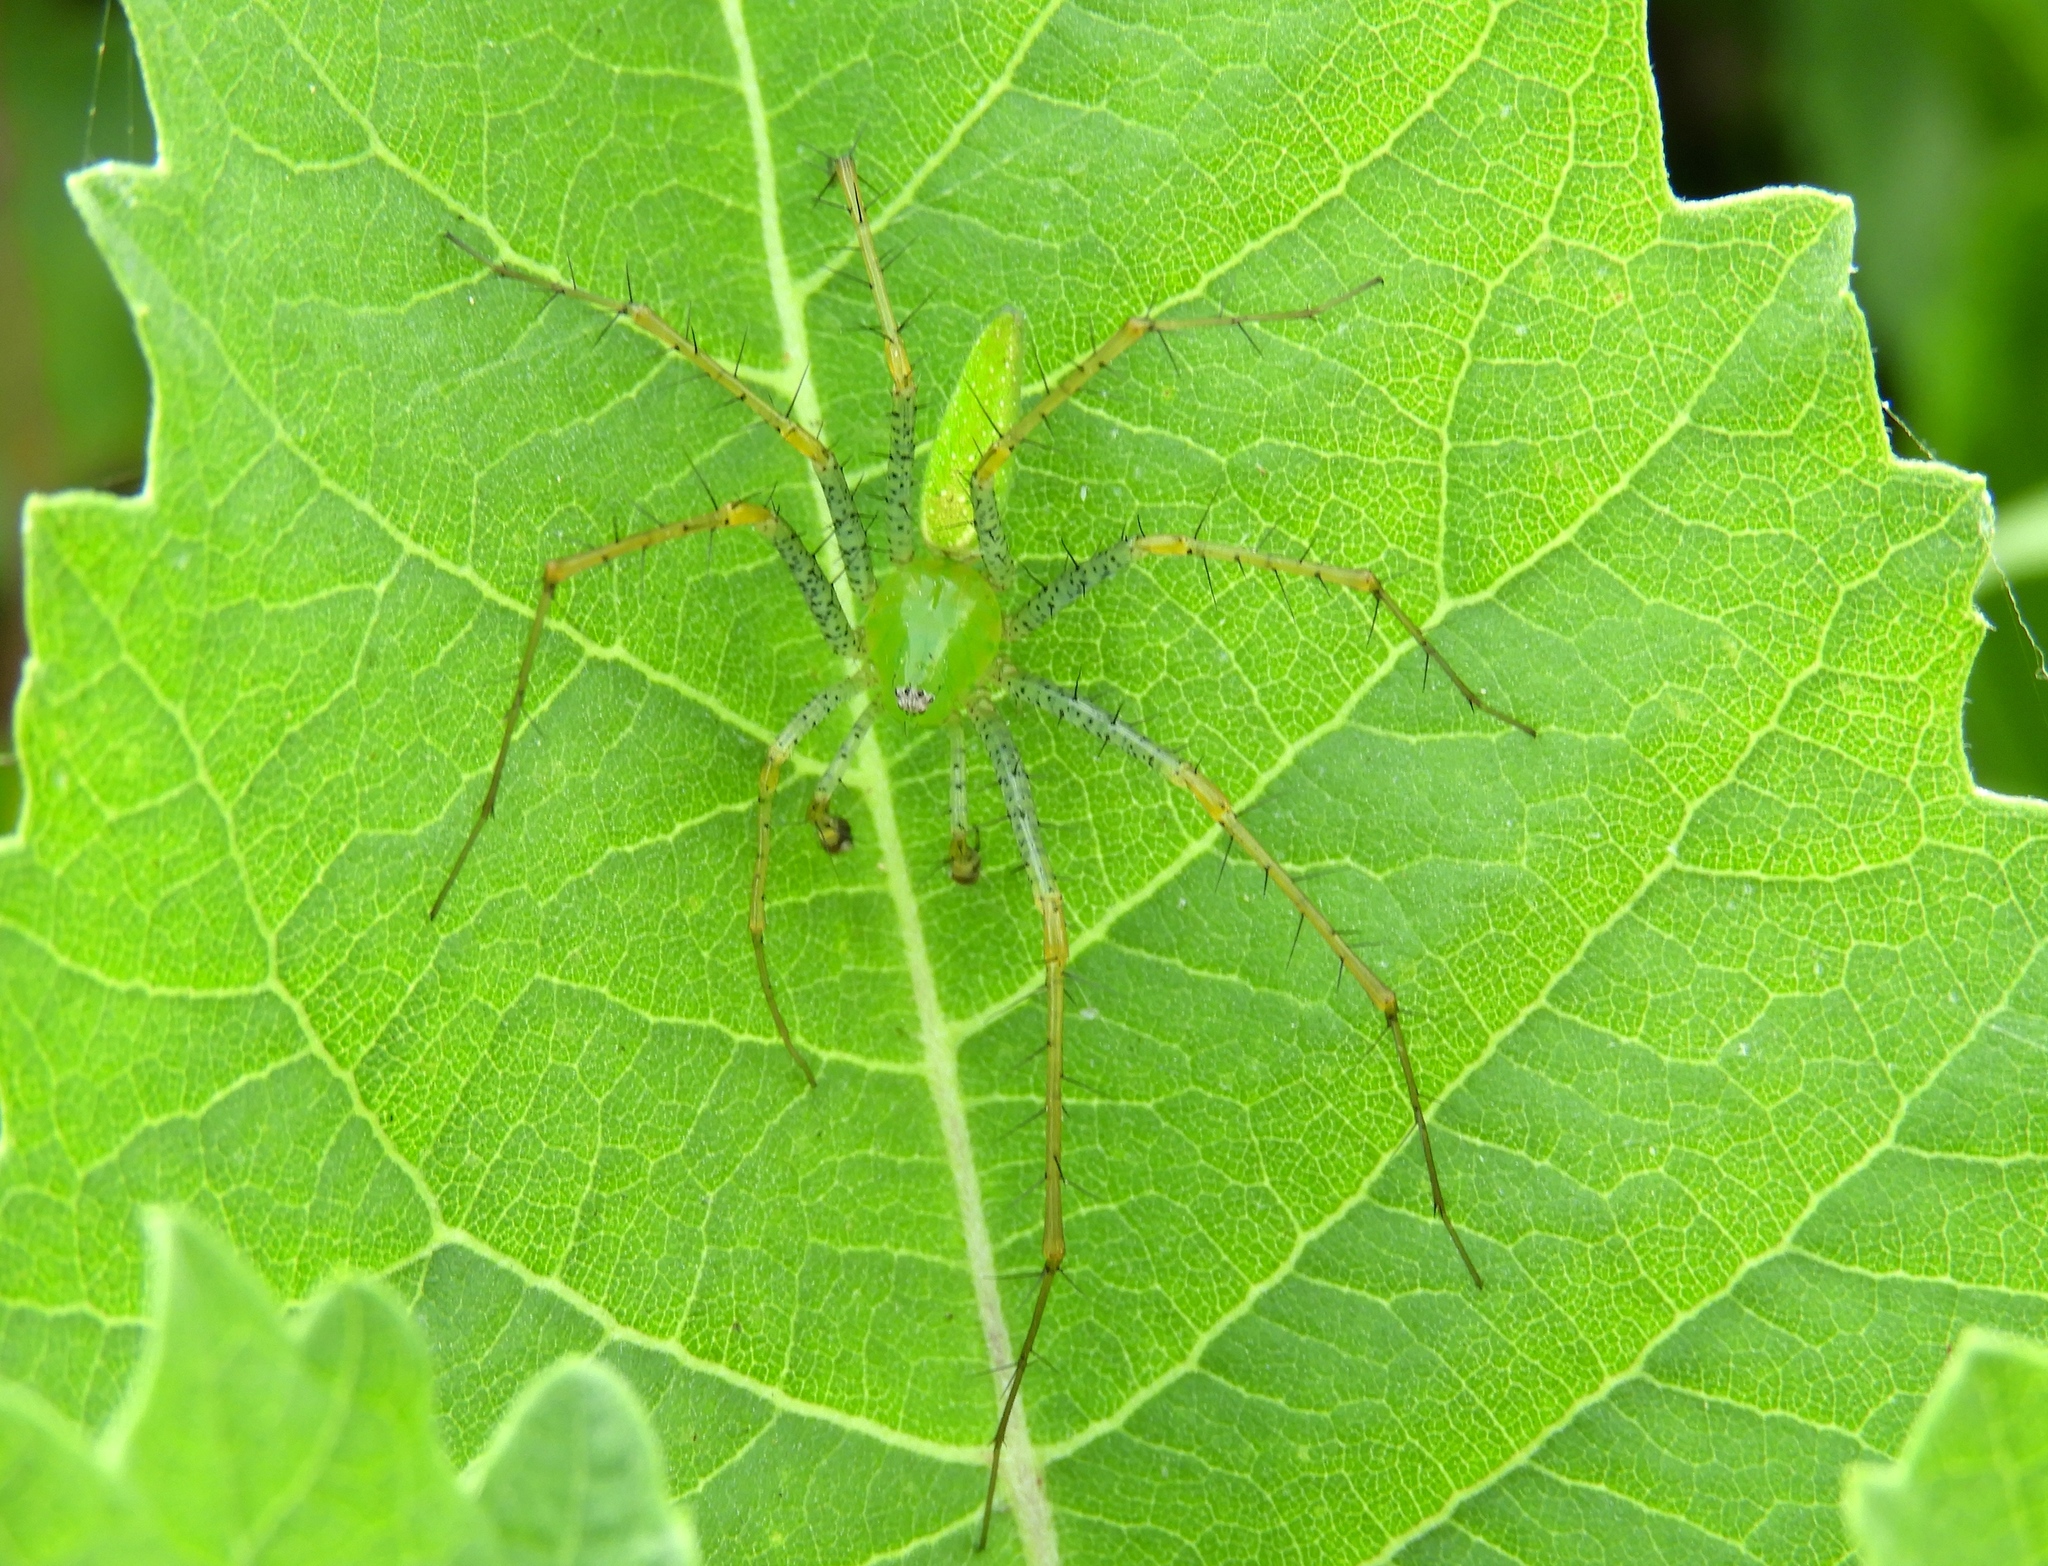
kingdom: Animalia
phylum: Arthropoda
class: Arachnida
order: Araneae
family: Oxyopidae
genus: Peucetia
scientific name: Peucetia
